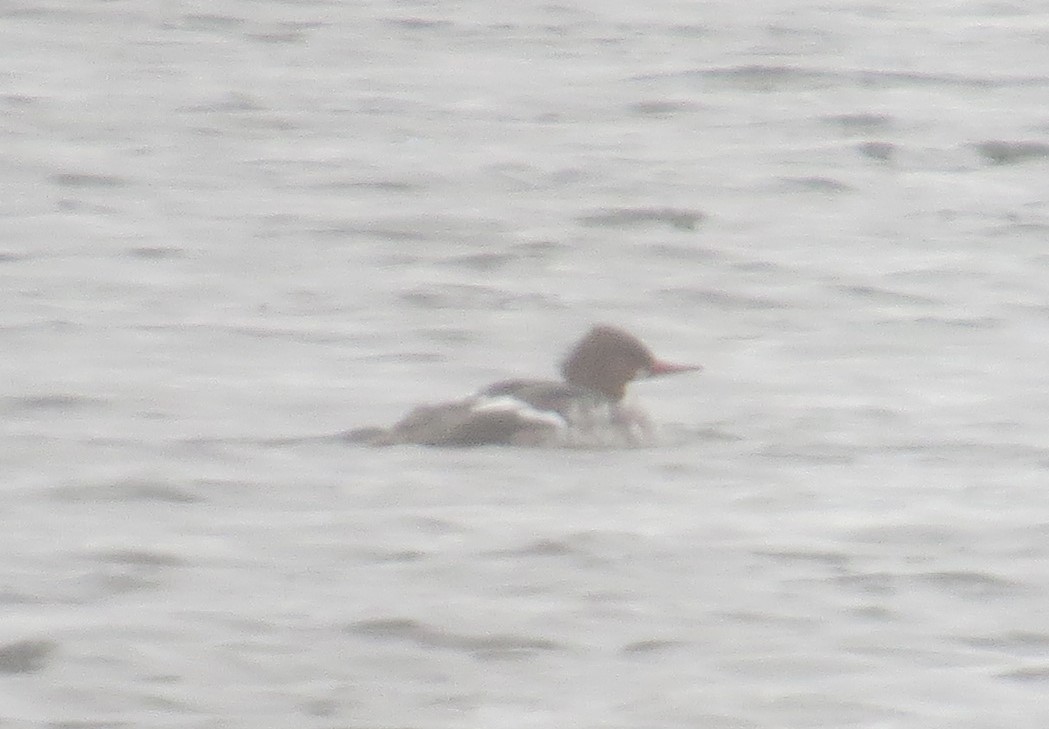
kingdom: Animalia
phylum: Chordata
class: Aves
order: Anseriformes
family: Anatidae
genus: Mergus
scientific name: Mergus serrator
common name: Red-breasted merganser
